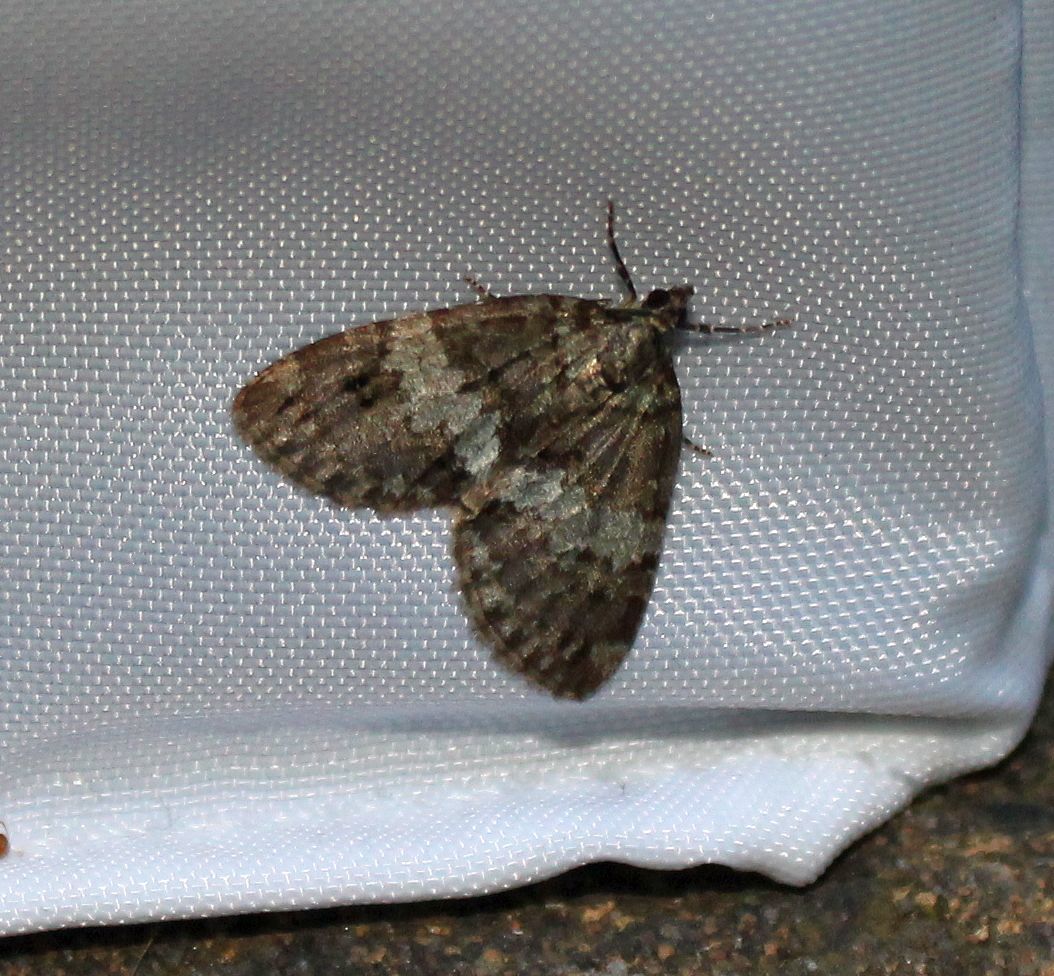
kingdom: Animalia
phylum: Arthropoda
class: Insecta
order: Lepidoptera
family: Geometridae
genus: Hydriomena
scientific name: Hydriomena impluviata
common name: May highflyer
